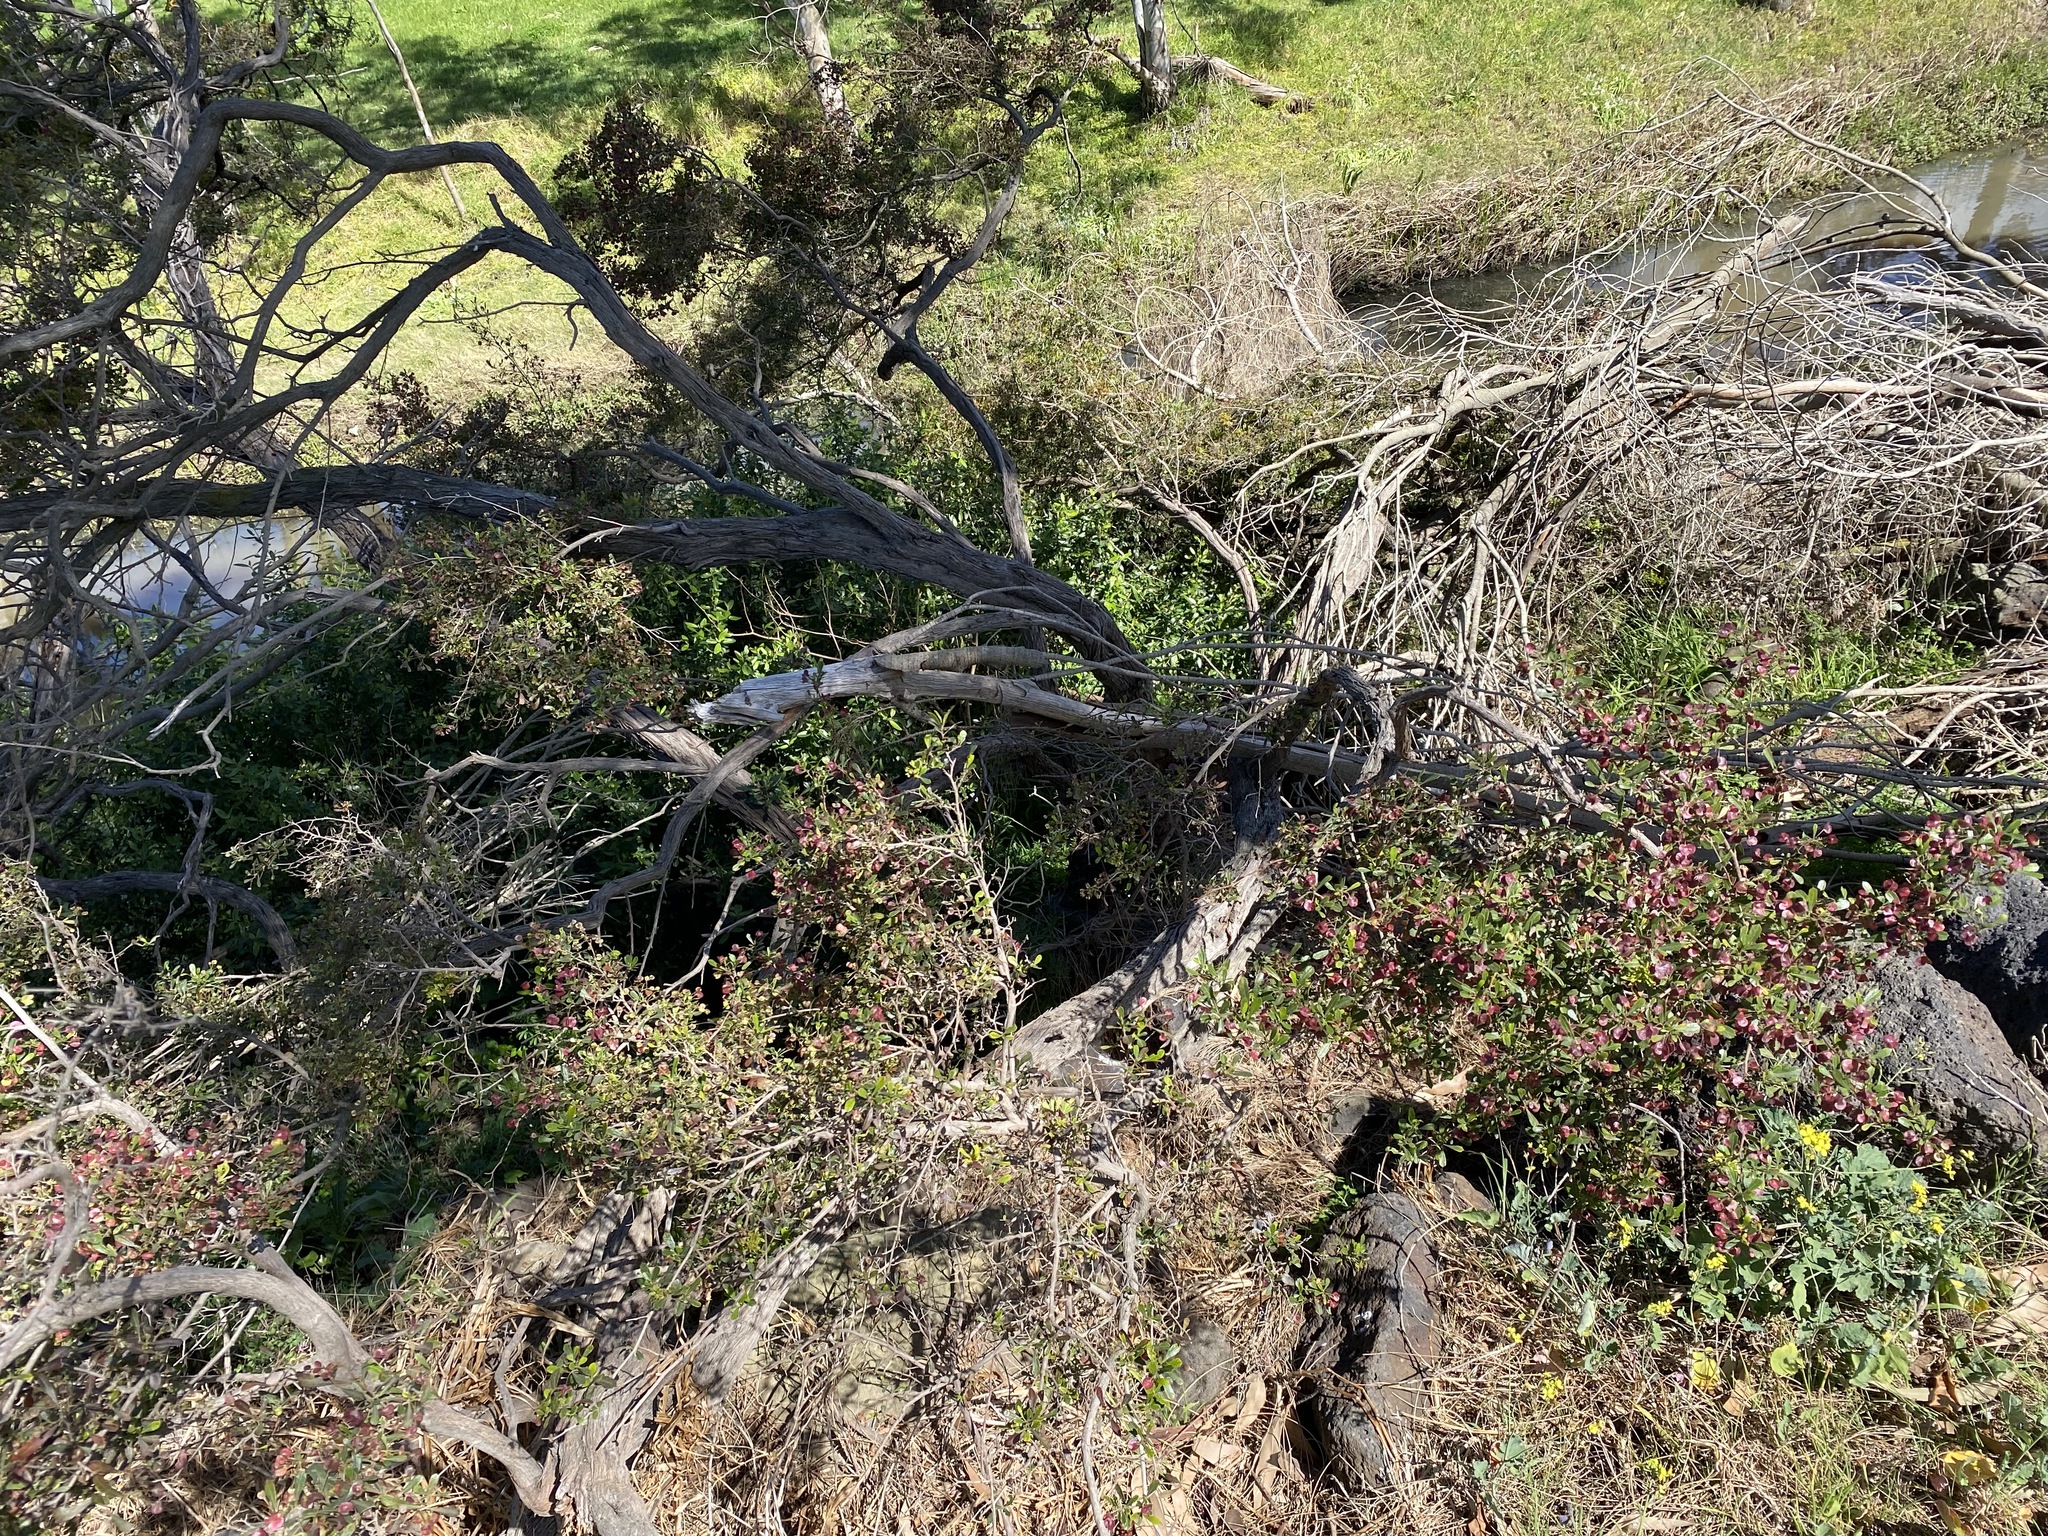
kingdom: Plantae
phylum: Tracheophyta
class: Magnoliopsida
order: Sapindales
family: Sapindaceae
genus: Dodonaea
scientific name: Dodonaea viscosa
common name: Hopbush
